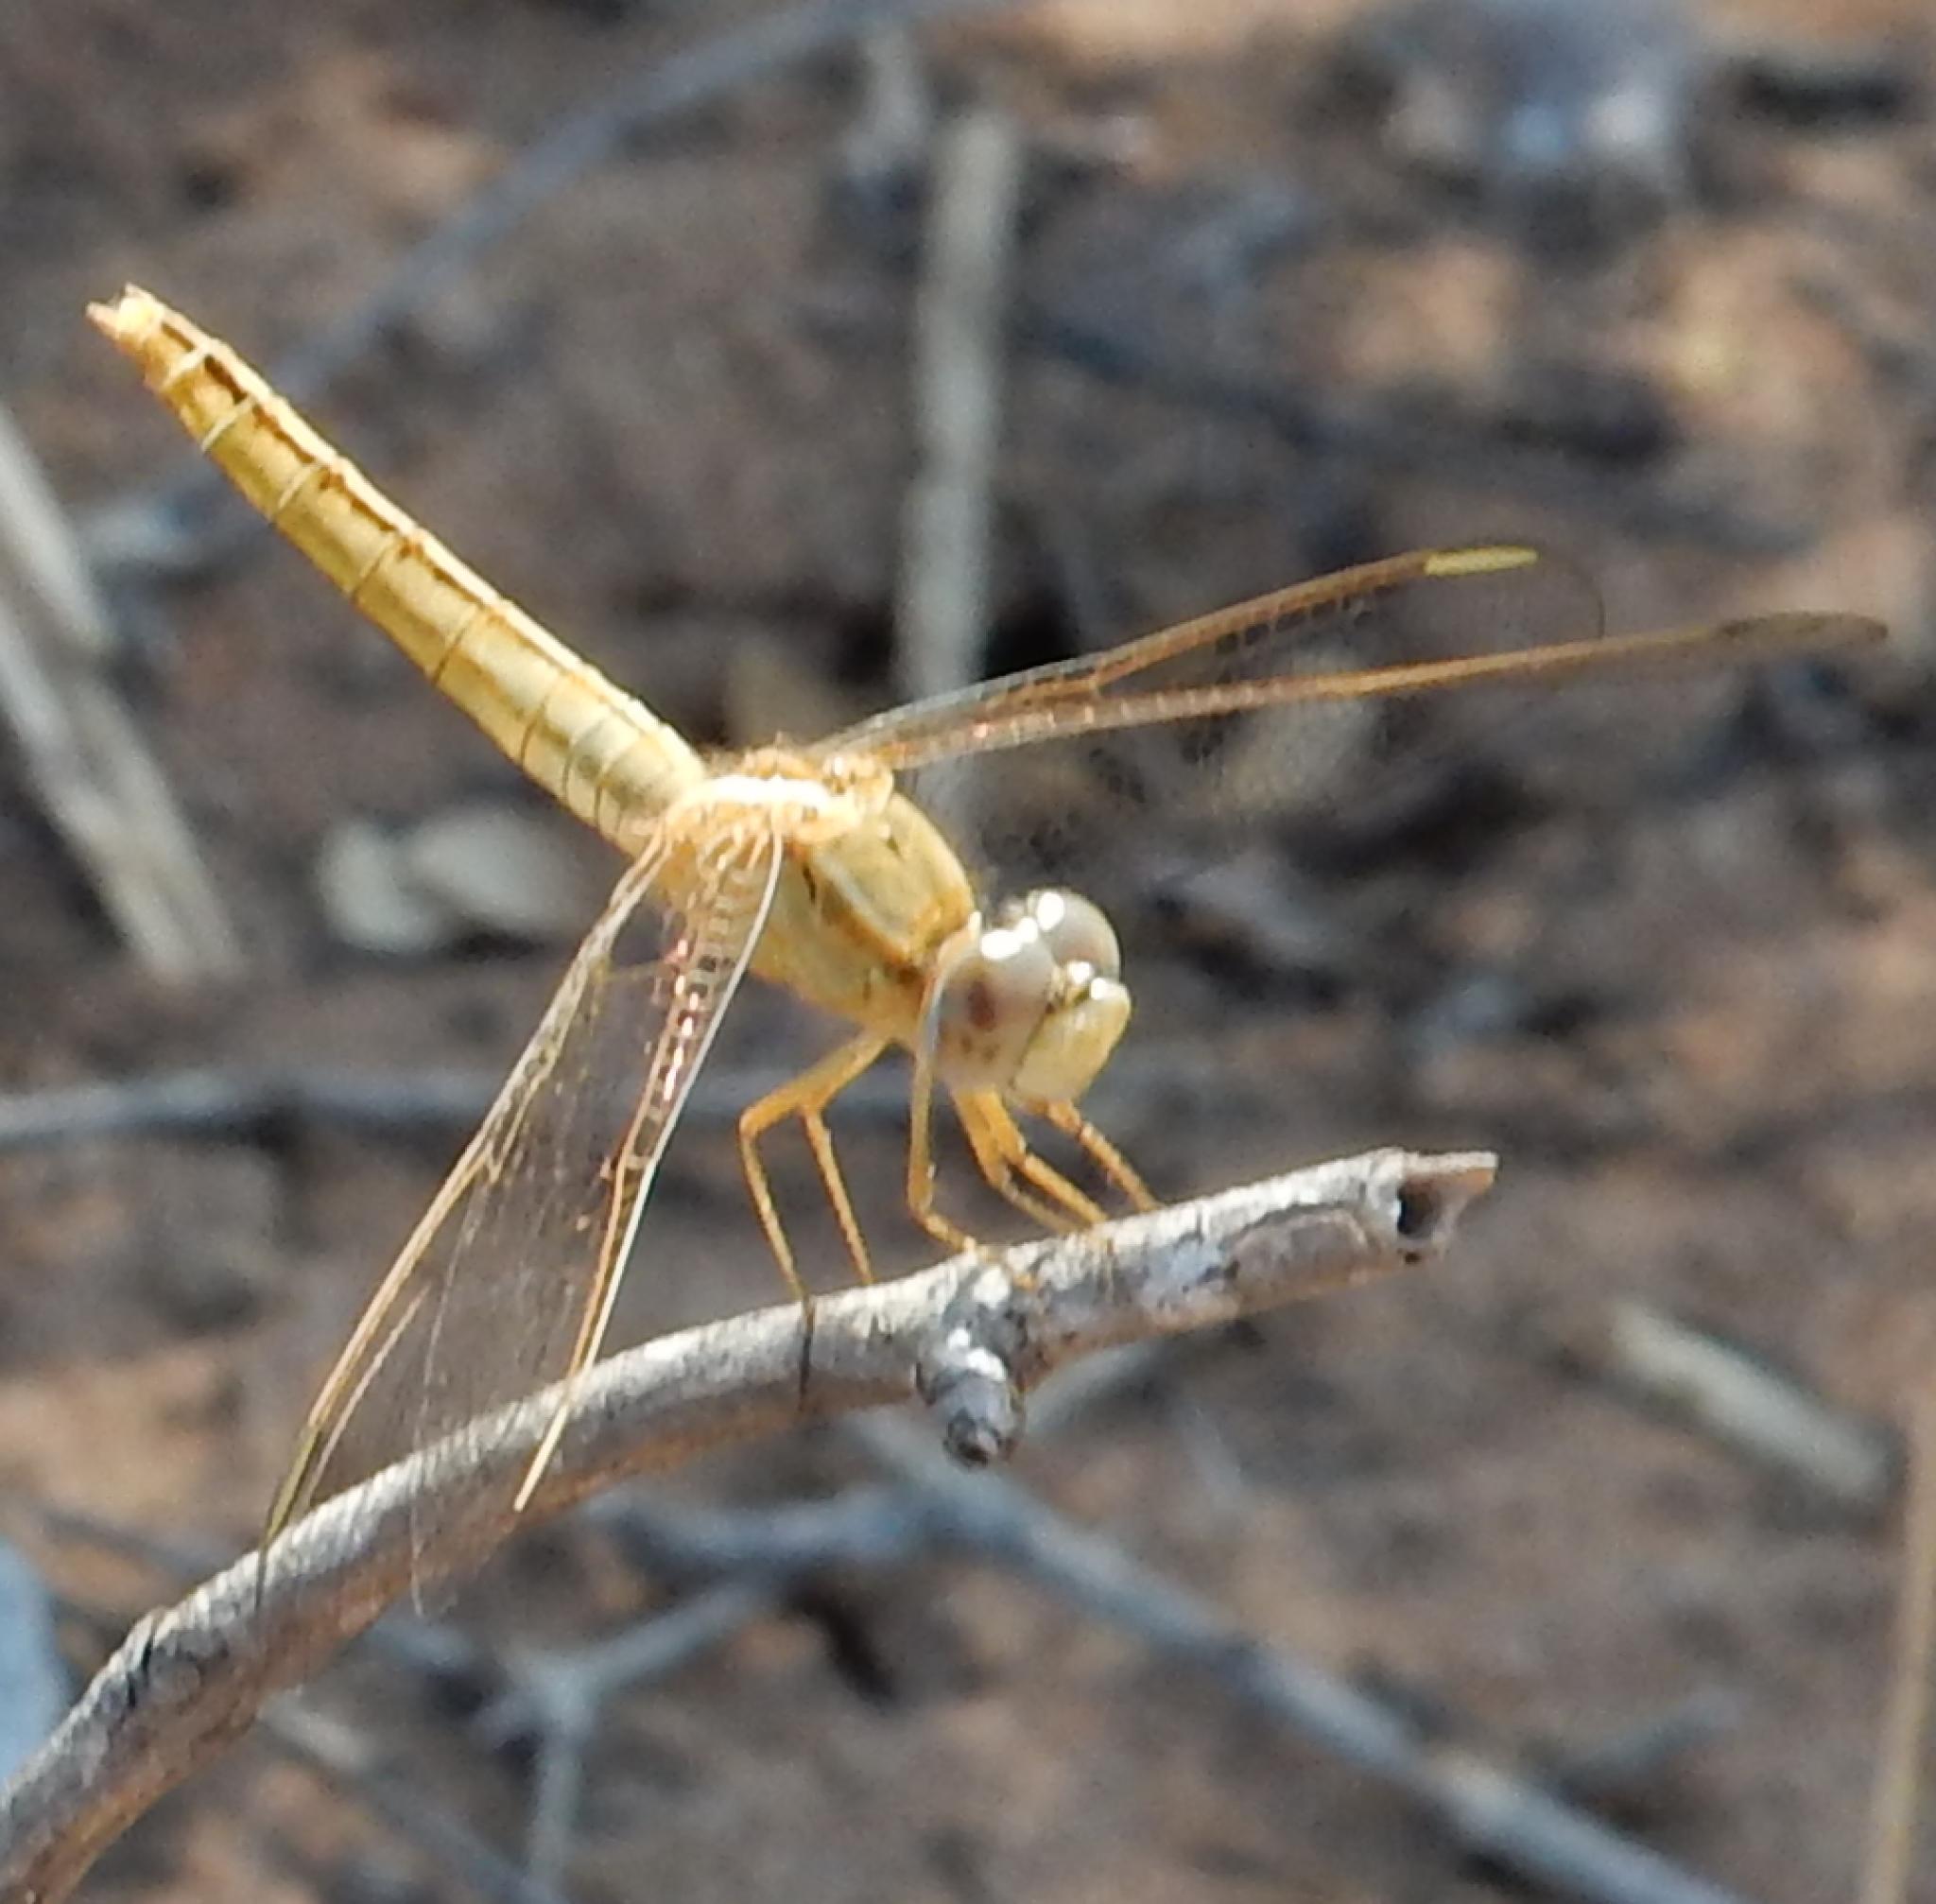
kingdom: Animalia
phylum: Arthropoda
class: Insecta
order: Odonata
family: Libellulidae
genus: Crocothemis
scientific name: Crocothemis erythraea
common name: Scarlet dragonfly
